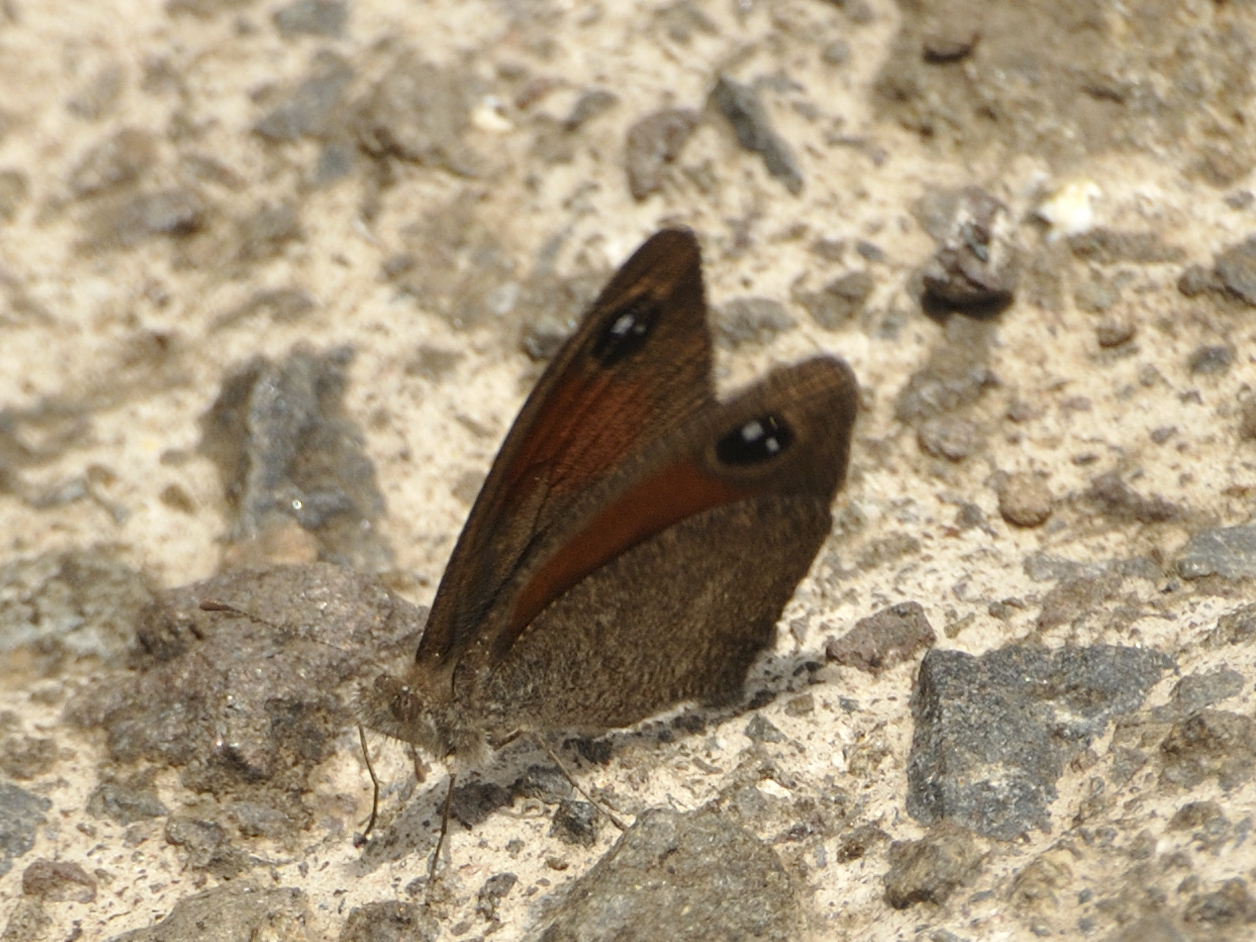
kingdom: Animalia
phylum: Arthropoda
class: Insecta
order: Lepidoptera
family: Nymphalidae
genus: Stygionympha
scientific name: Stygionympha scotina
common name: Eastern hillside brown
